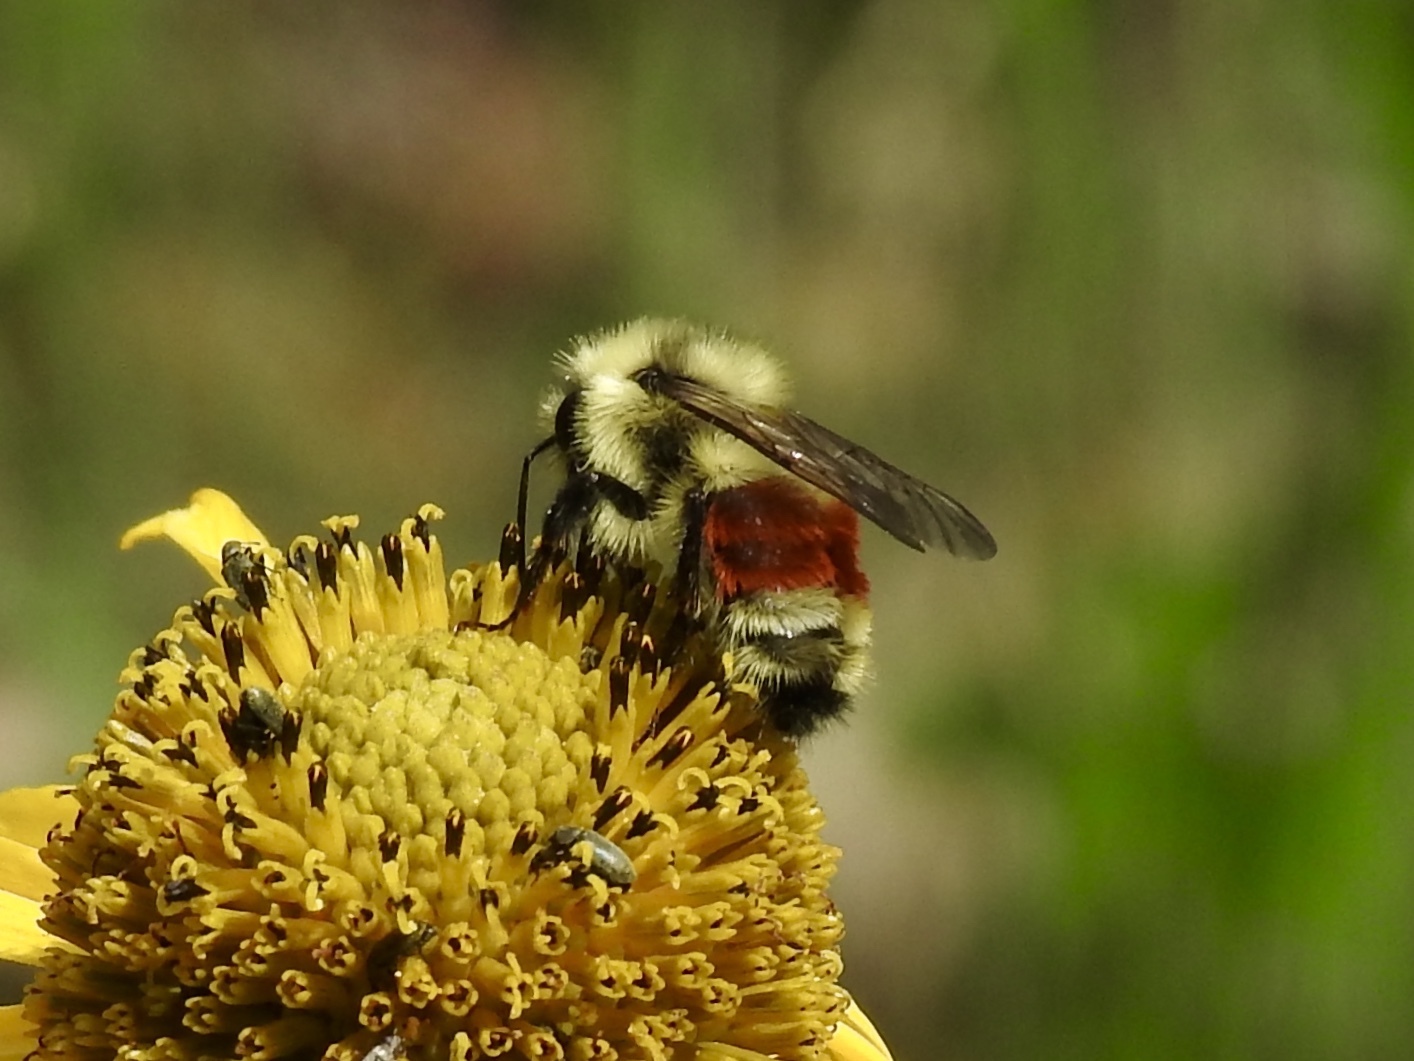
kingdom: Animalia
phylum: Arthropoda
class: Insecta
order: Hymenoptera
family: Apidae
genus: Bombus
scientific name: Bombus huntii
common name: Hunt bumble bee
